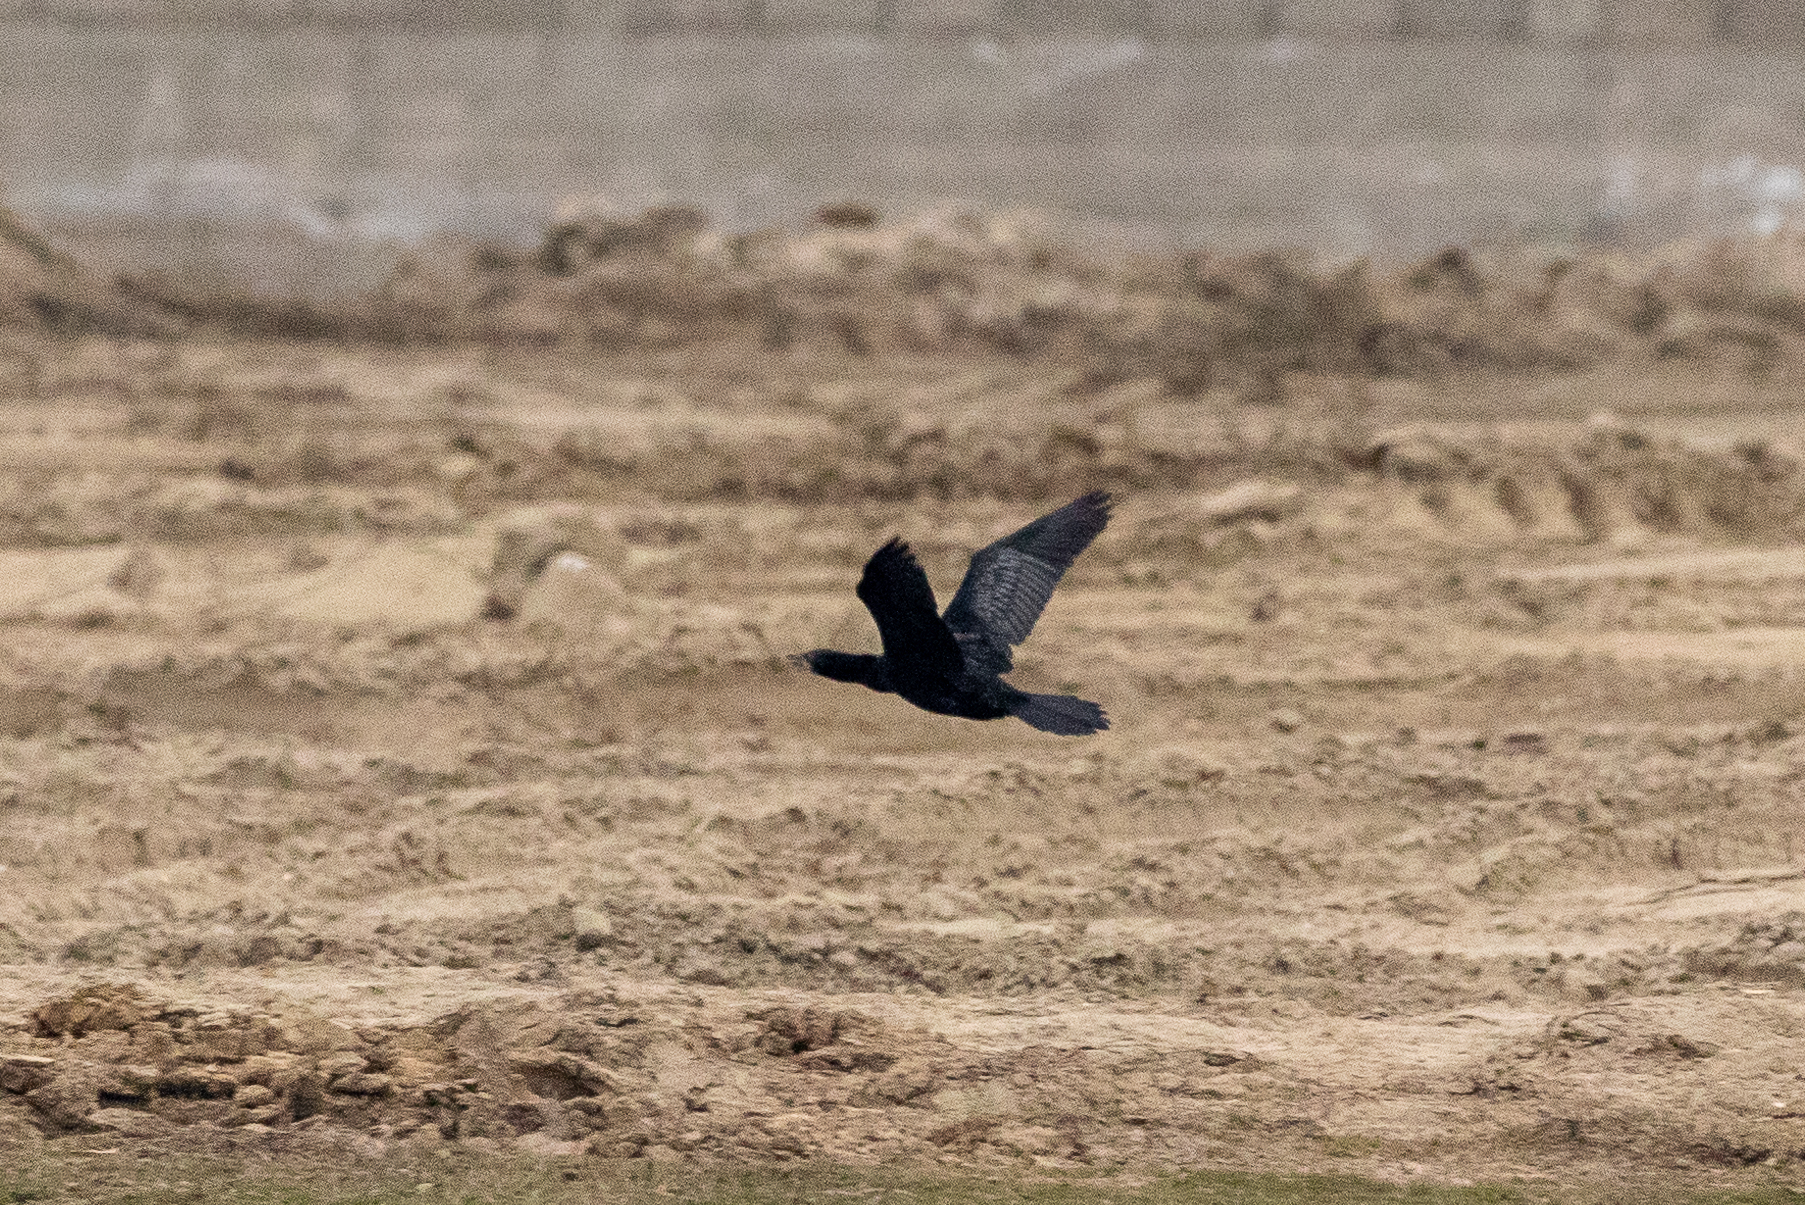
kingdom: Animalia
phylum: Chordata
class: Aves
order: Suliformes
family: Phalacrocoracidae
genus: Microcarbo
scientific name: Microcarbo pygmaeus
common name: Pygmy cormorant
